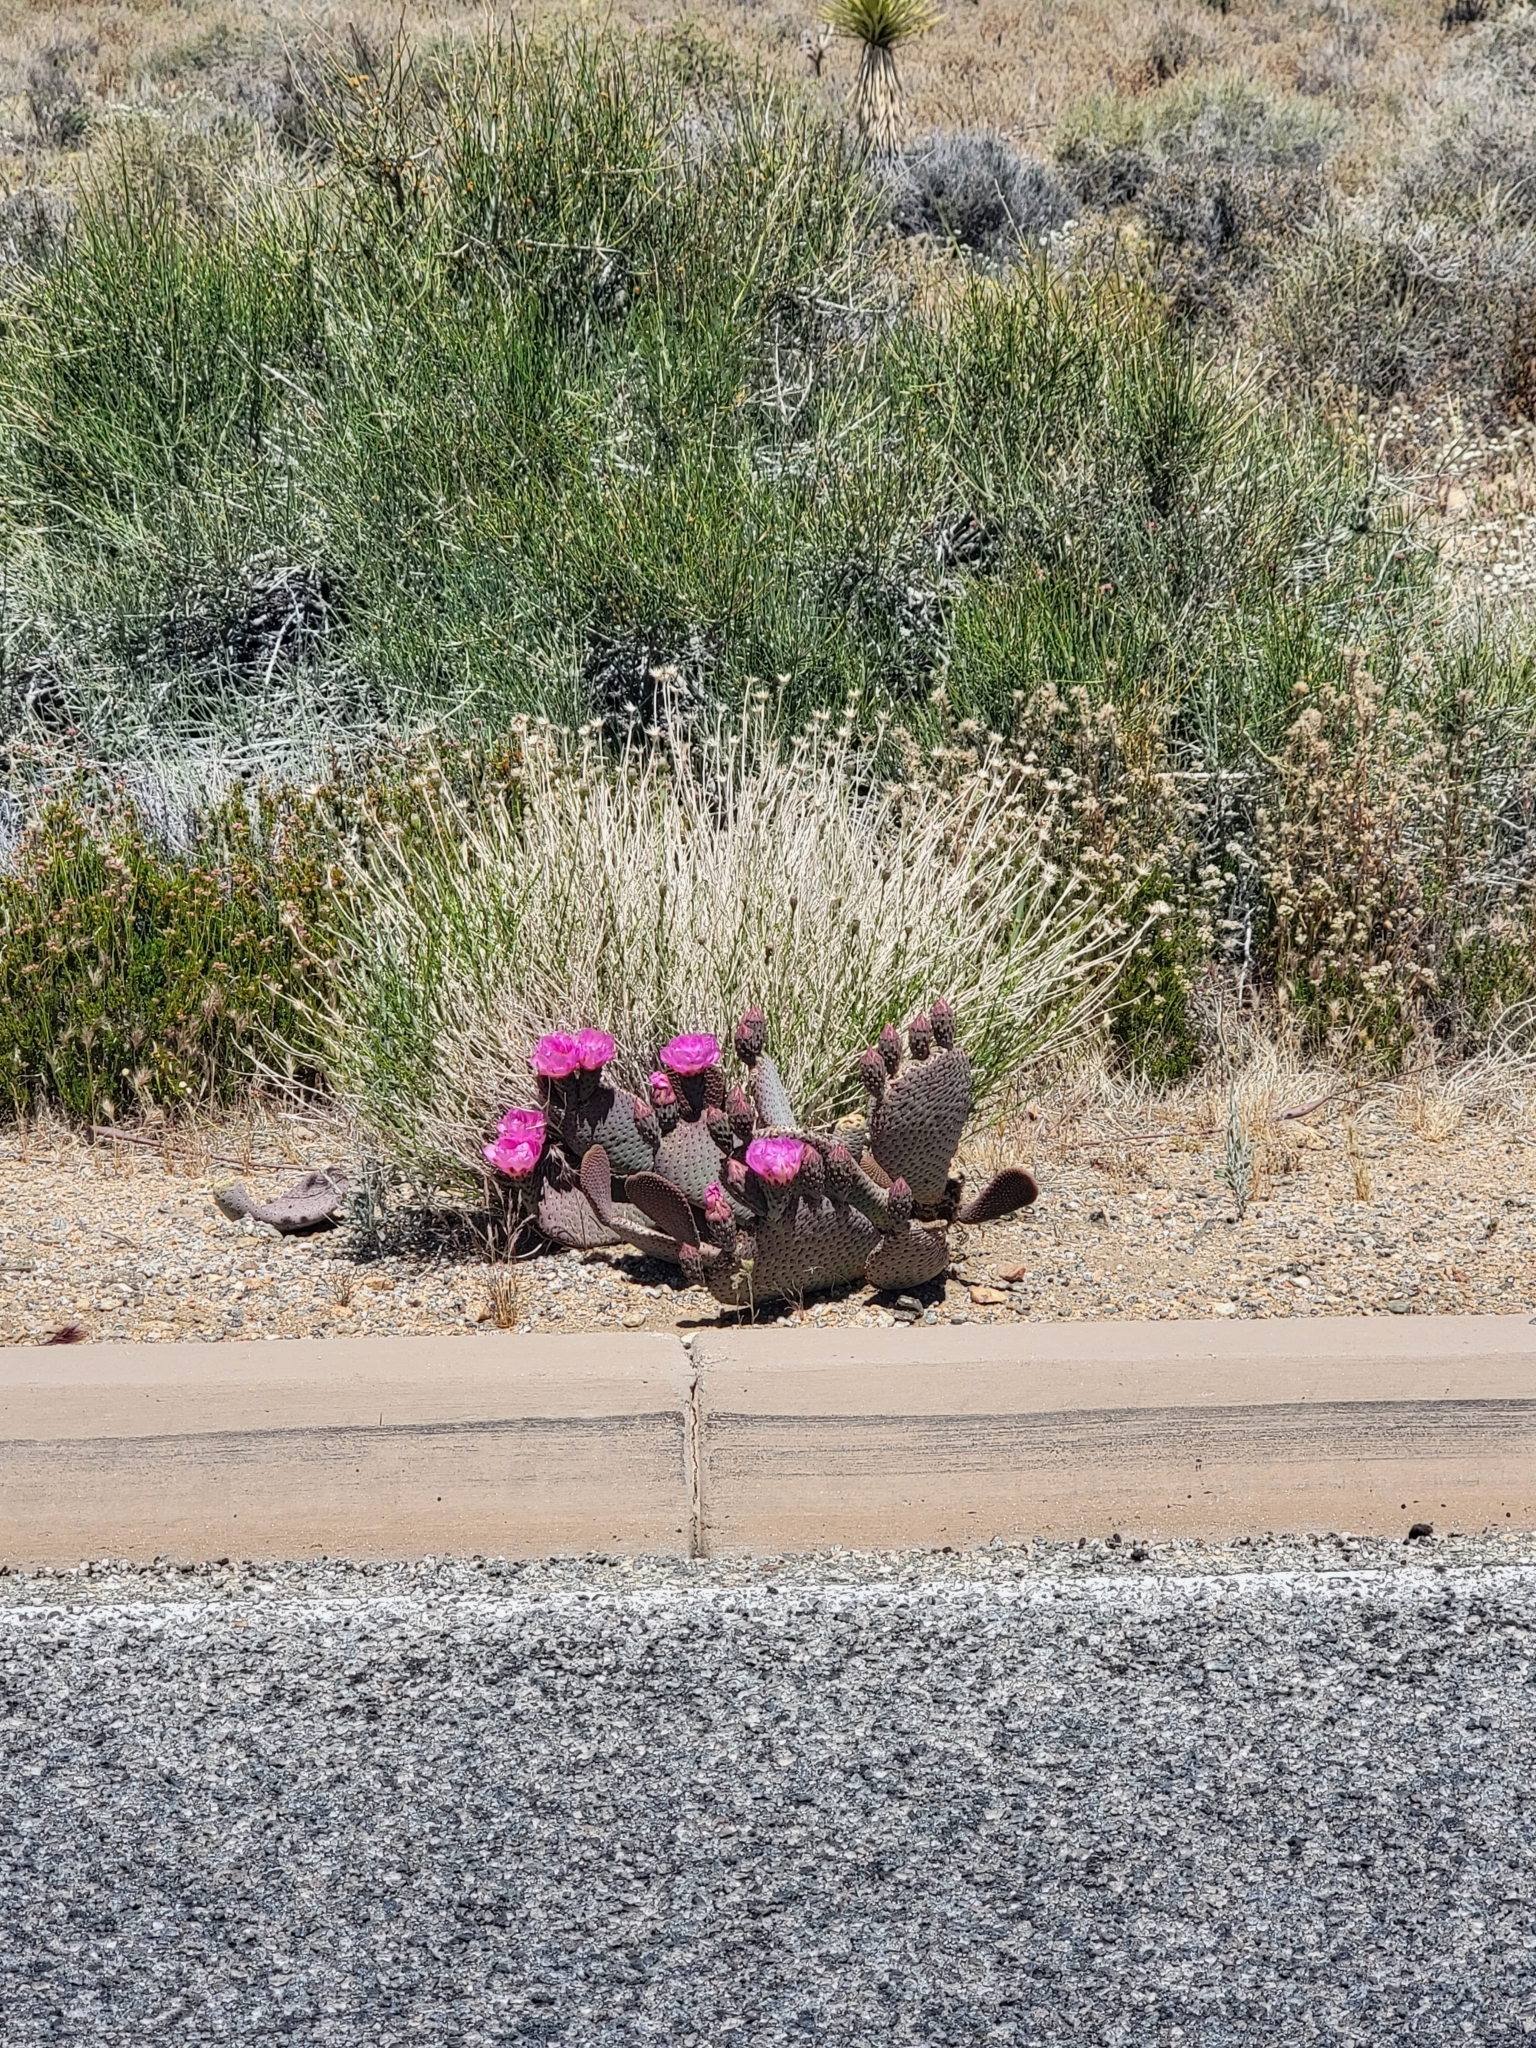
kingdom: Plantae
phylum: Tracheophyta
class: Magnoliopsida
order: Caryophyllales
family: Cactaceae
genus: Opuntia
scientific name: Opuntia basilaris
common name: Beavertail prickly-pear
